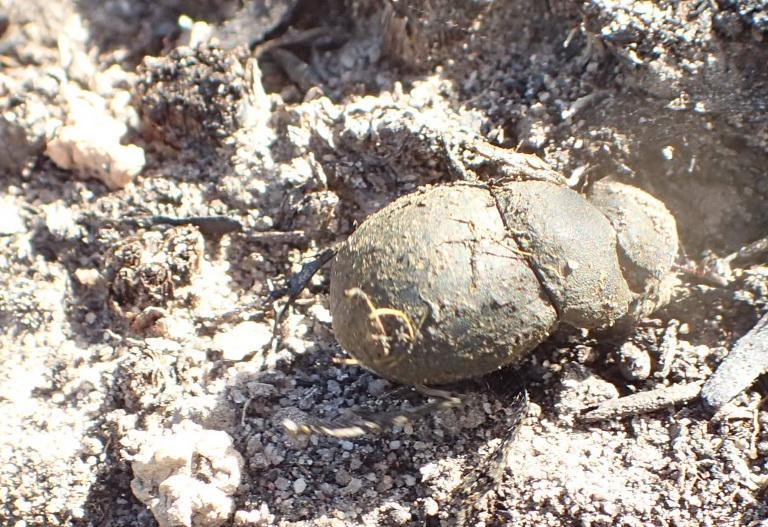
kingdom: Animalia
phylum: Arthropoda
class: Insecta
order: Coleoptera
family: Scarabaeidae
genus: Epirinus
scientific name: Epirinus flagellatus
